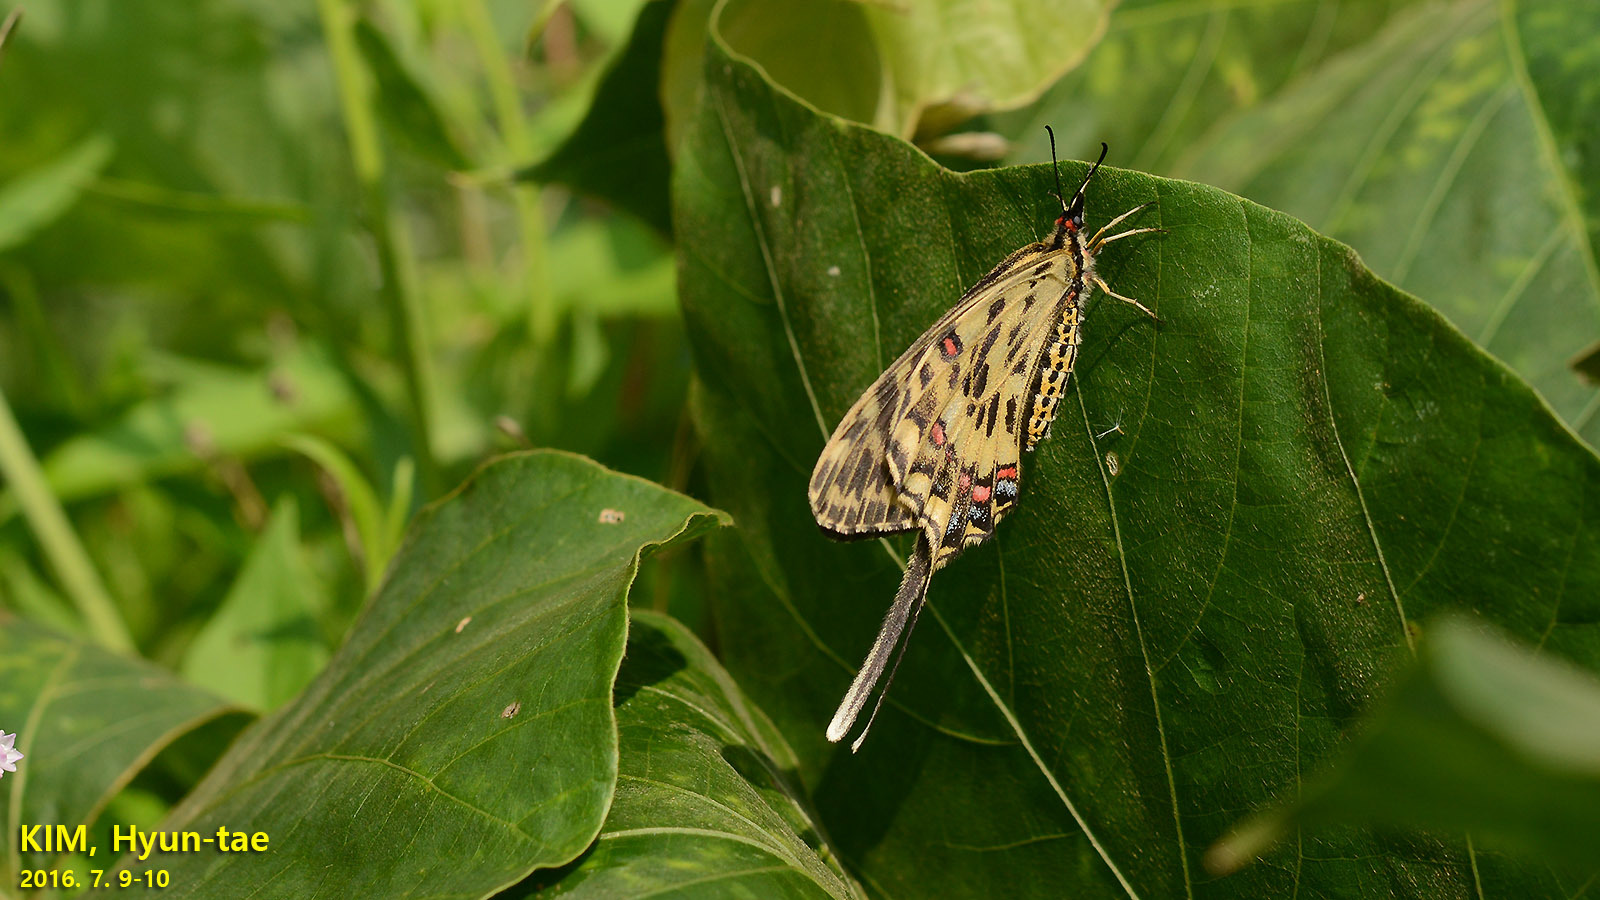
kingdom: Animalia
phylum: Arthropoda
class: Insecta
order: Lepidoptera
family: Papilionidae
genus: Sericinus
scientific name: Sericinus montela
